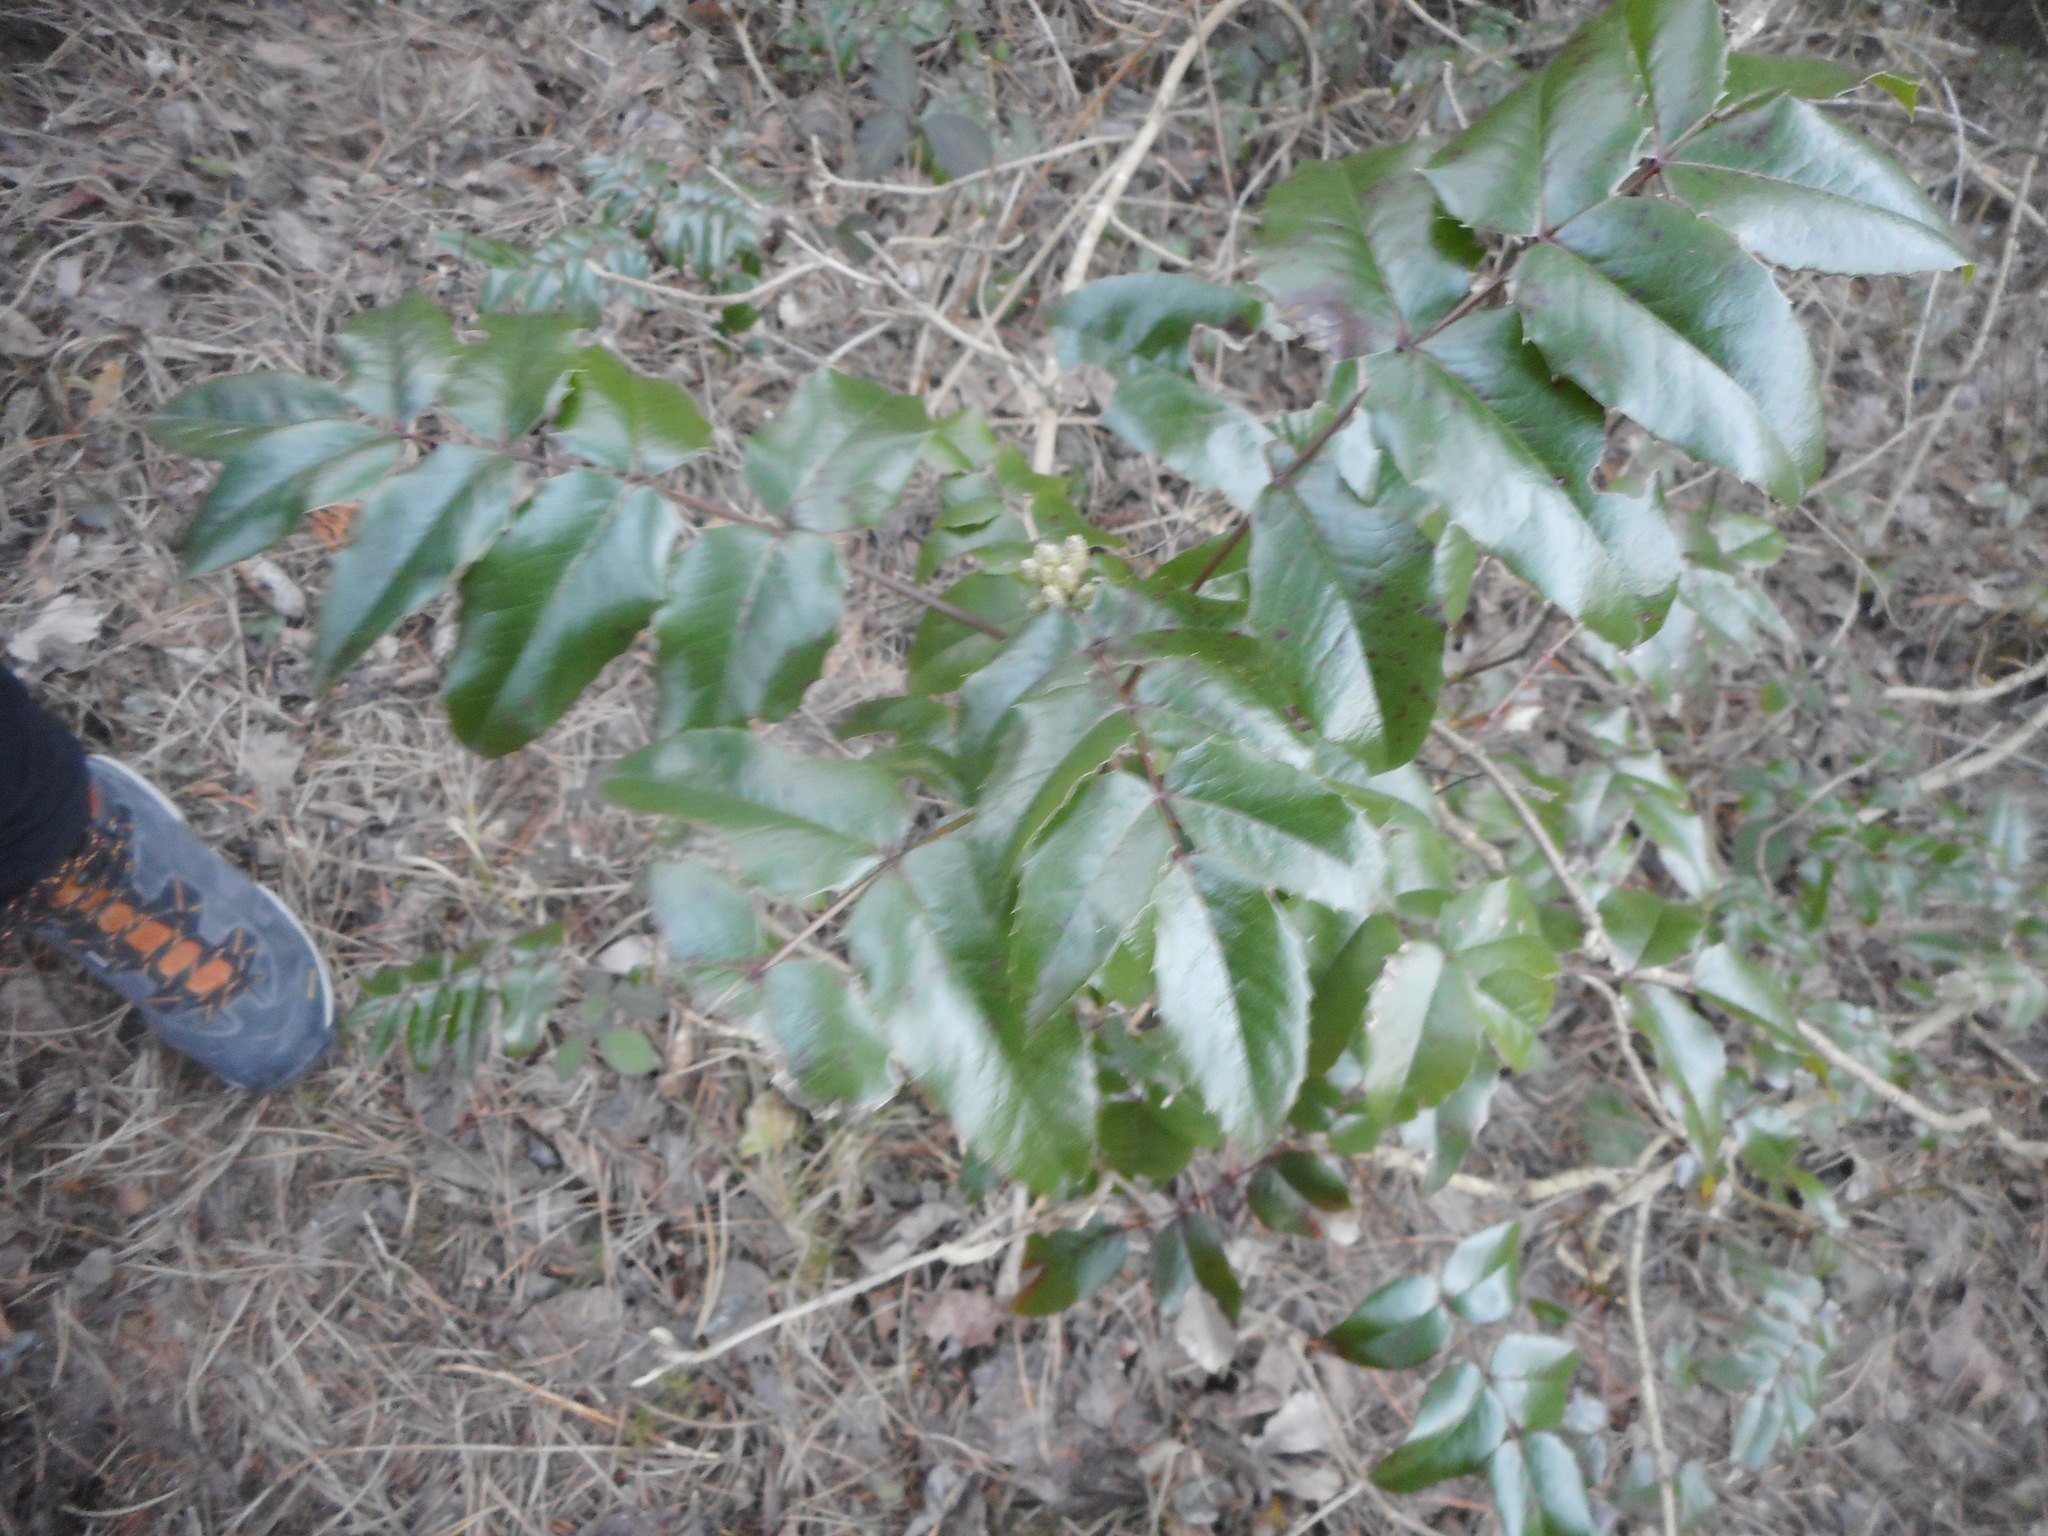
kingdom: Plantae
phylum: Tracheophyta
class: Magnoliopsida
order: Ranunculales
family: Berberidaceae
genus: Mahonia
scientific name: Mahonia aquifolium
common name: Oregon-grape
